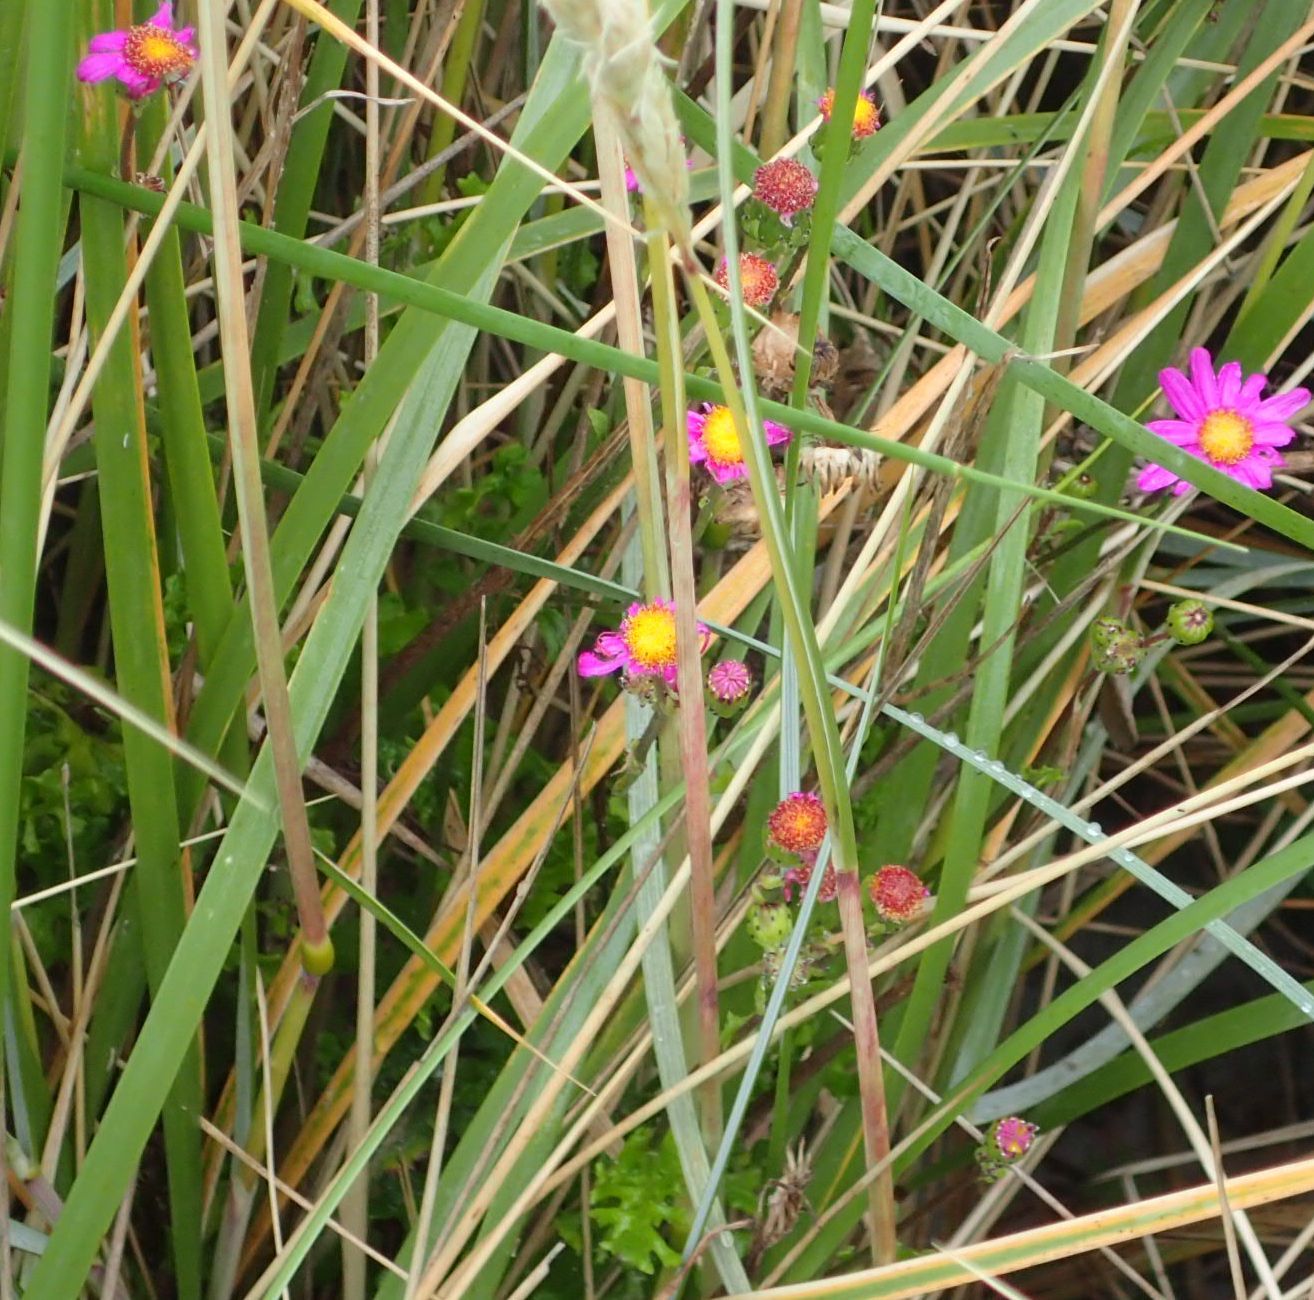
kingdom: Plantae
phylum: Tracheophyta
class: Magnoliopsida
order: Asterales
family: Asteraceae
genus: Senecio
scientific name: Senecio elegans
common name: Purple groundsel
